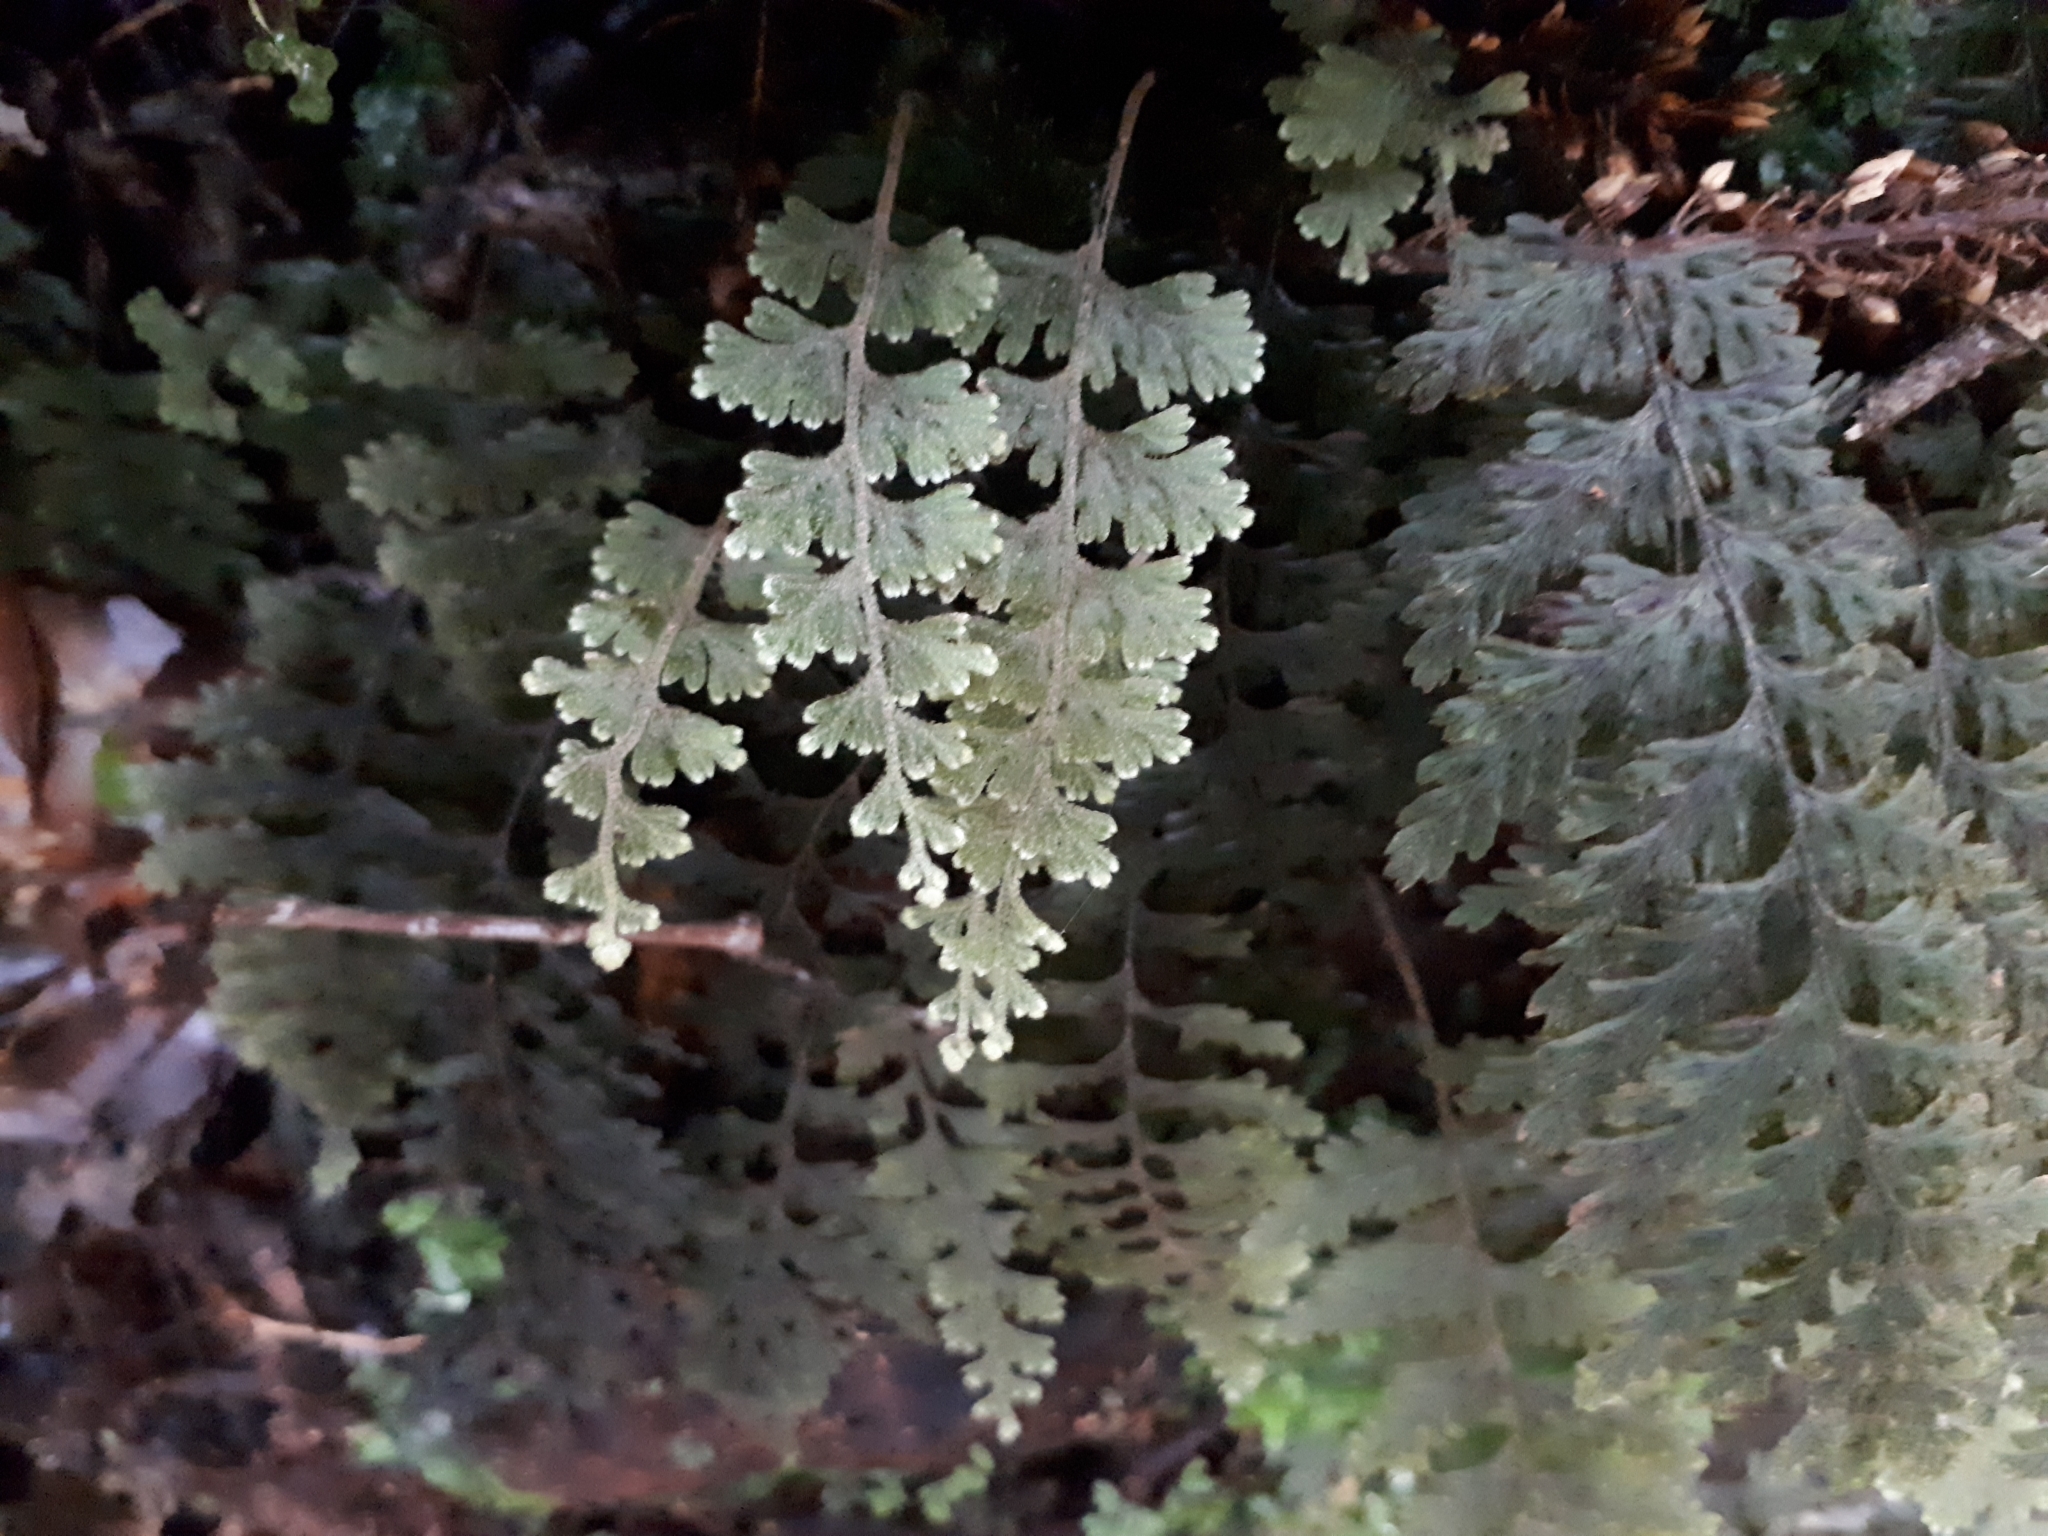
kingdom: Plantae
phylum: Tracheophyta
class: Polypodiopsida
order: Hymenophyllales
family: Hymenophyllaceae
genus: Hymenophyllum
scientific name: Hymenophyllum frankliniae
